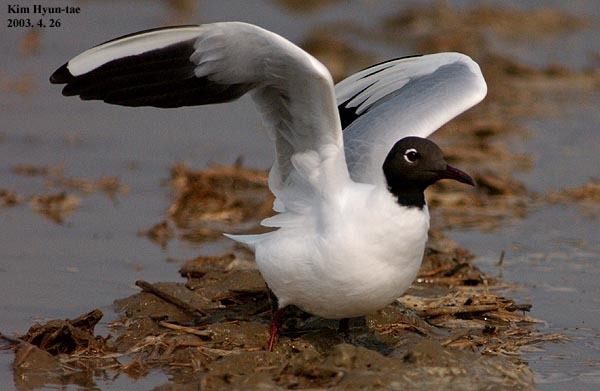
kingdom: Animalia
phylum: Chordata
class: Aves
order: Charadriiformes
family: Laridae
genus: Chroicocephalus
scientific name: Chroicocephalus ridibundus
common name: Black-headed gull
